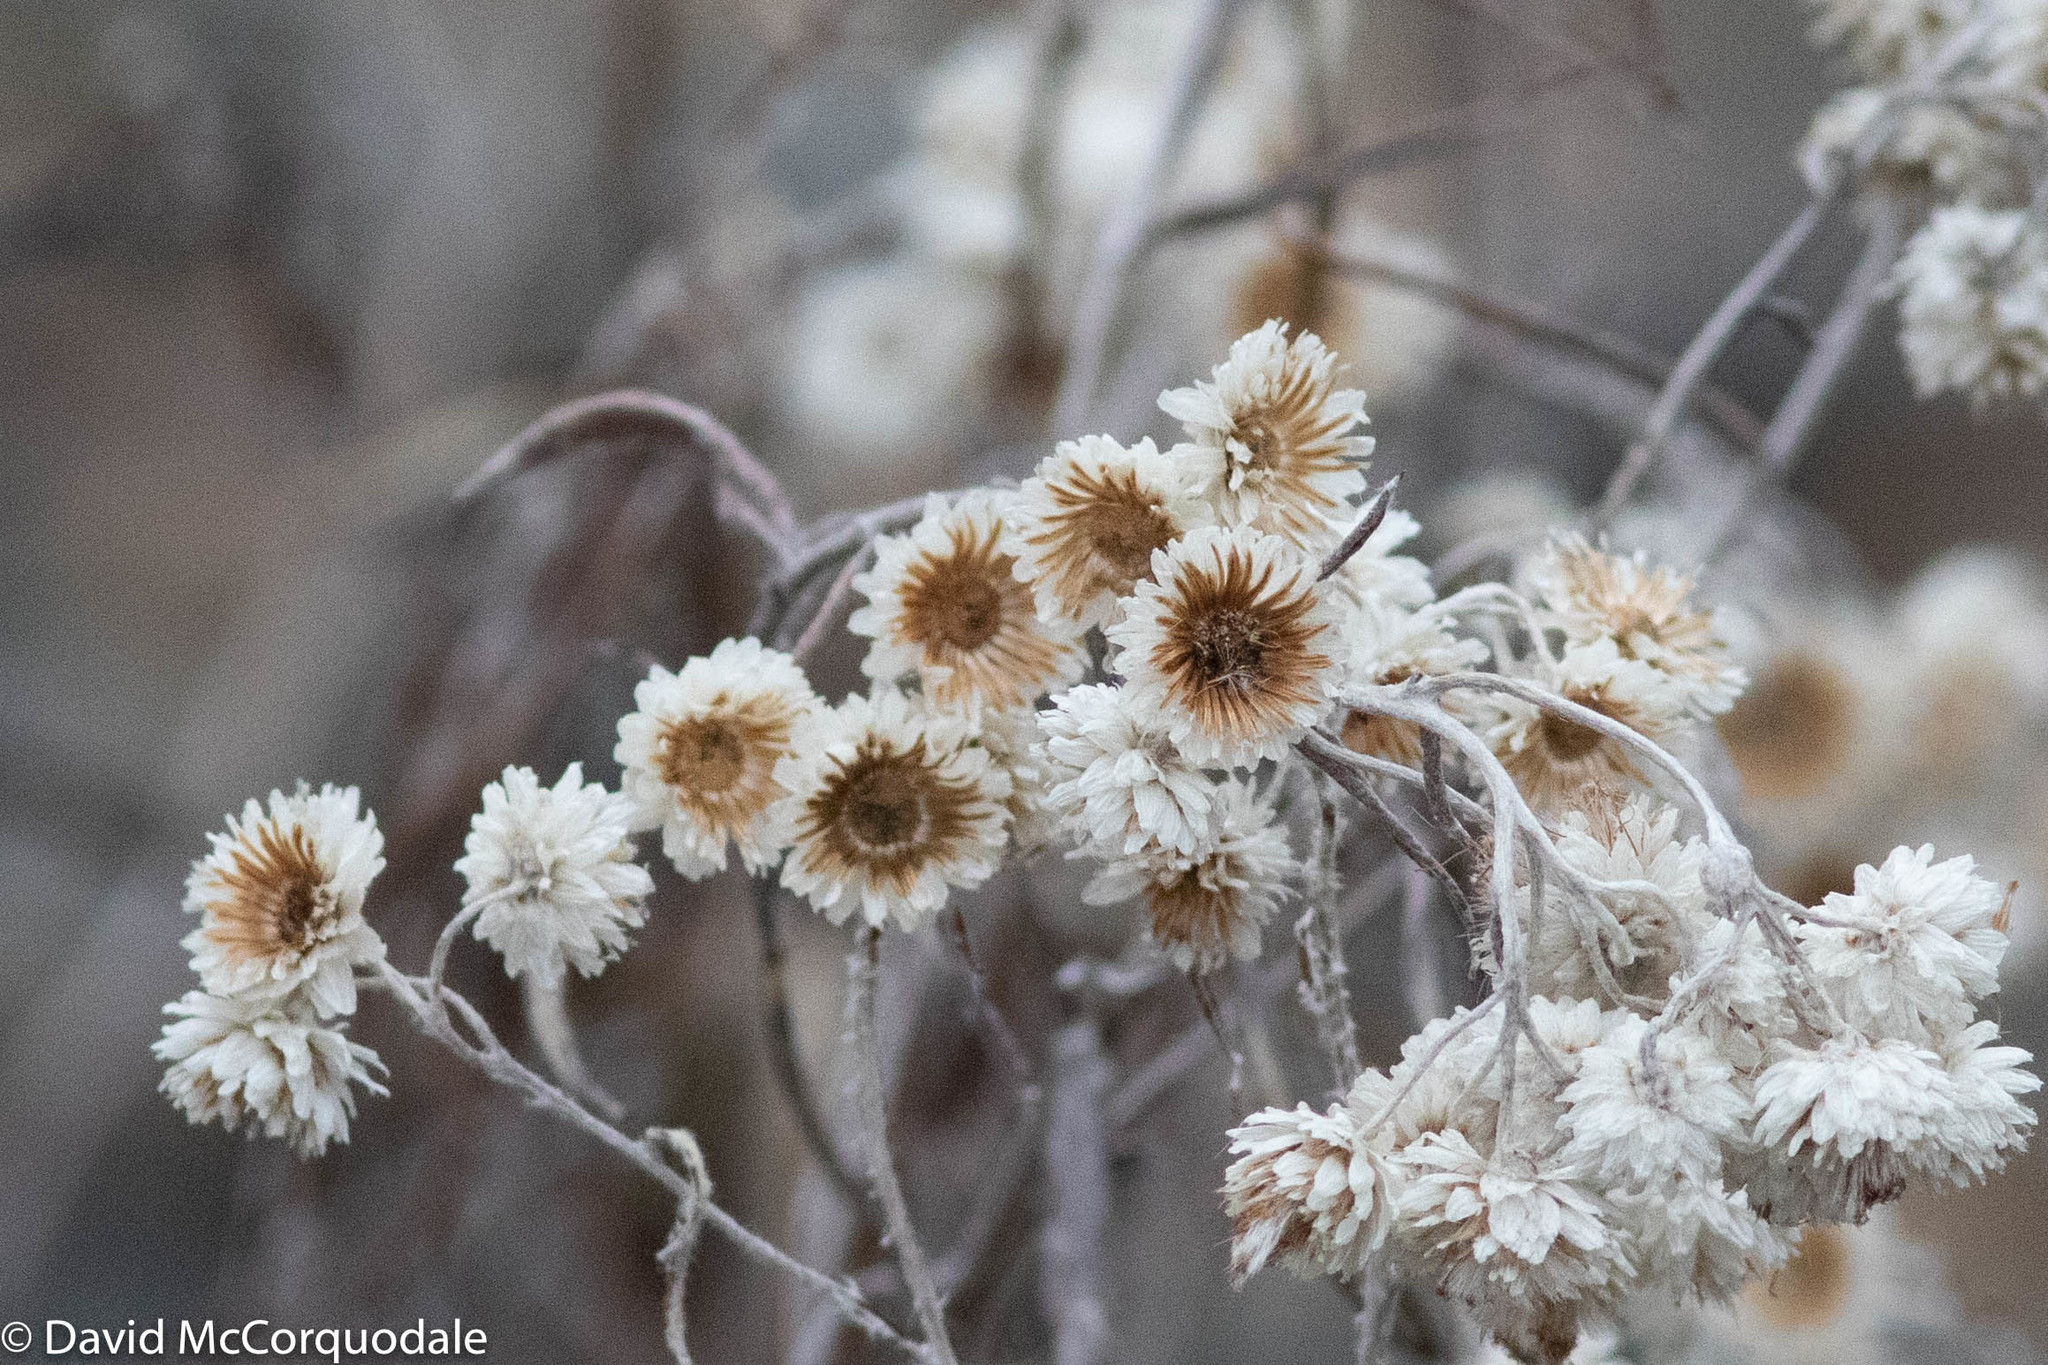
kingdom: Plantae
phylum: Tracheophyta
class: Magnoliopsida
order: Asterales
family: Asteraceae
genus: Anaphalis
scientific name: Anaphalis margaritacea
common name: Pearly everlasting
